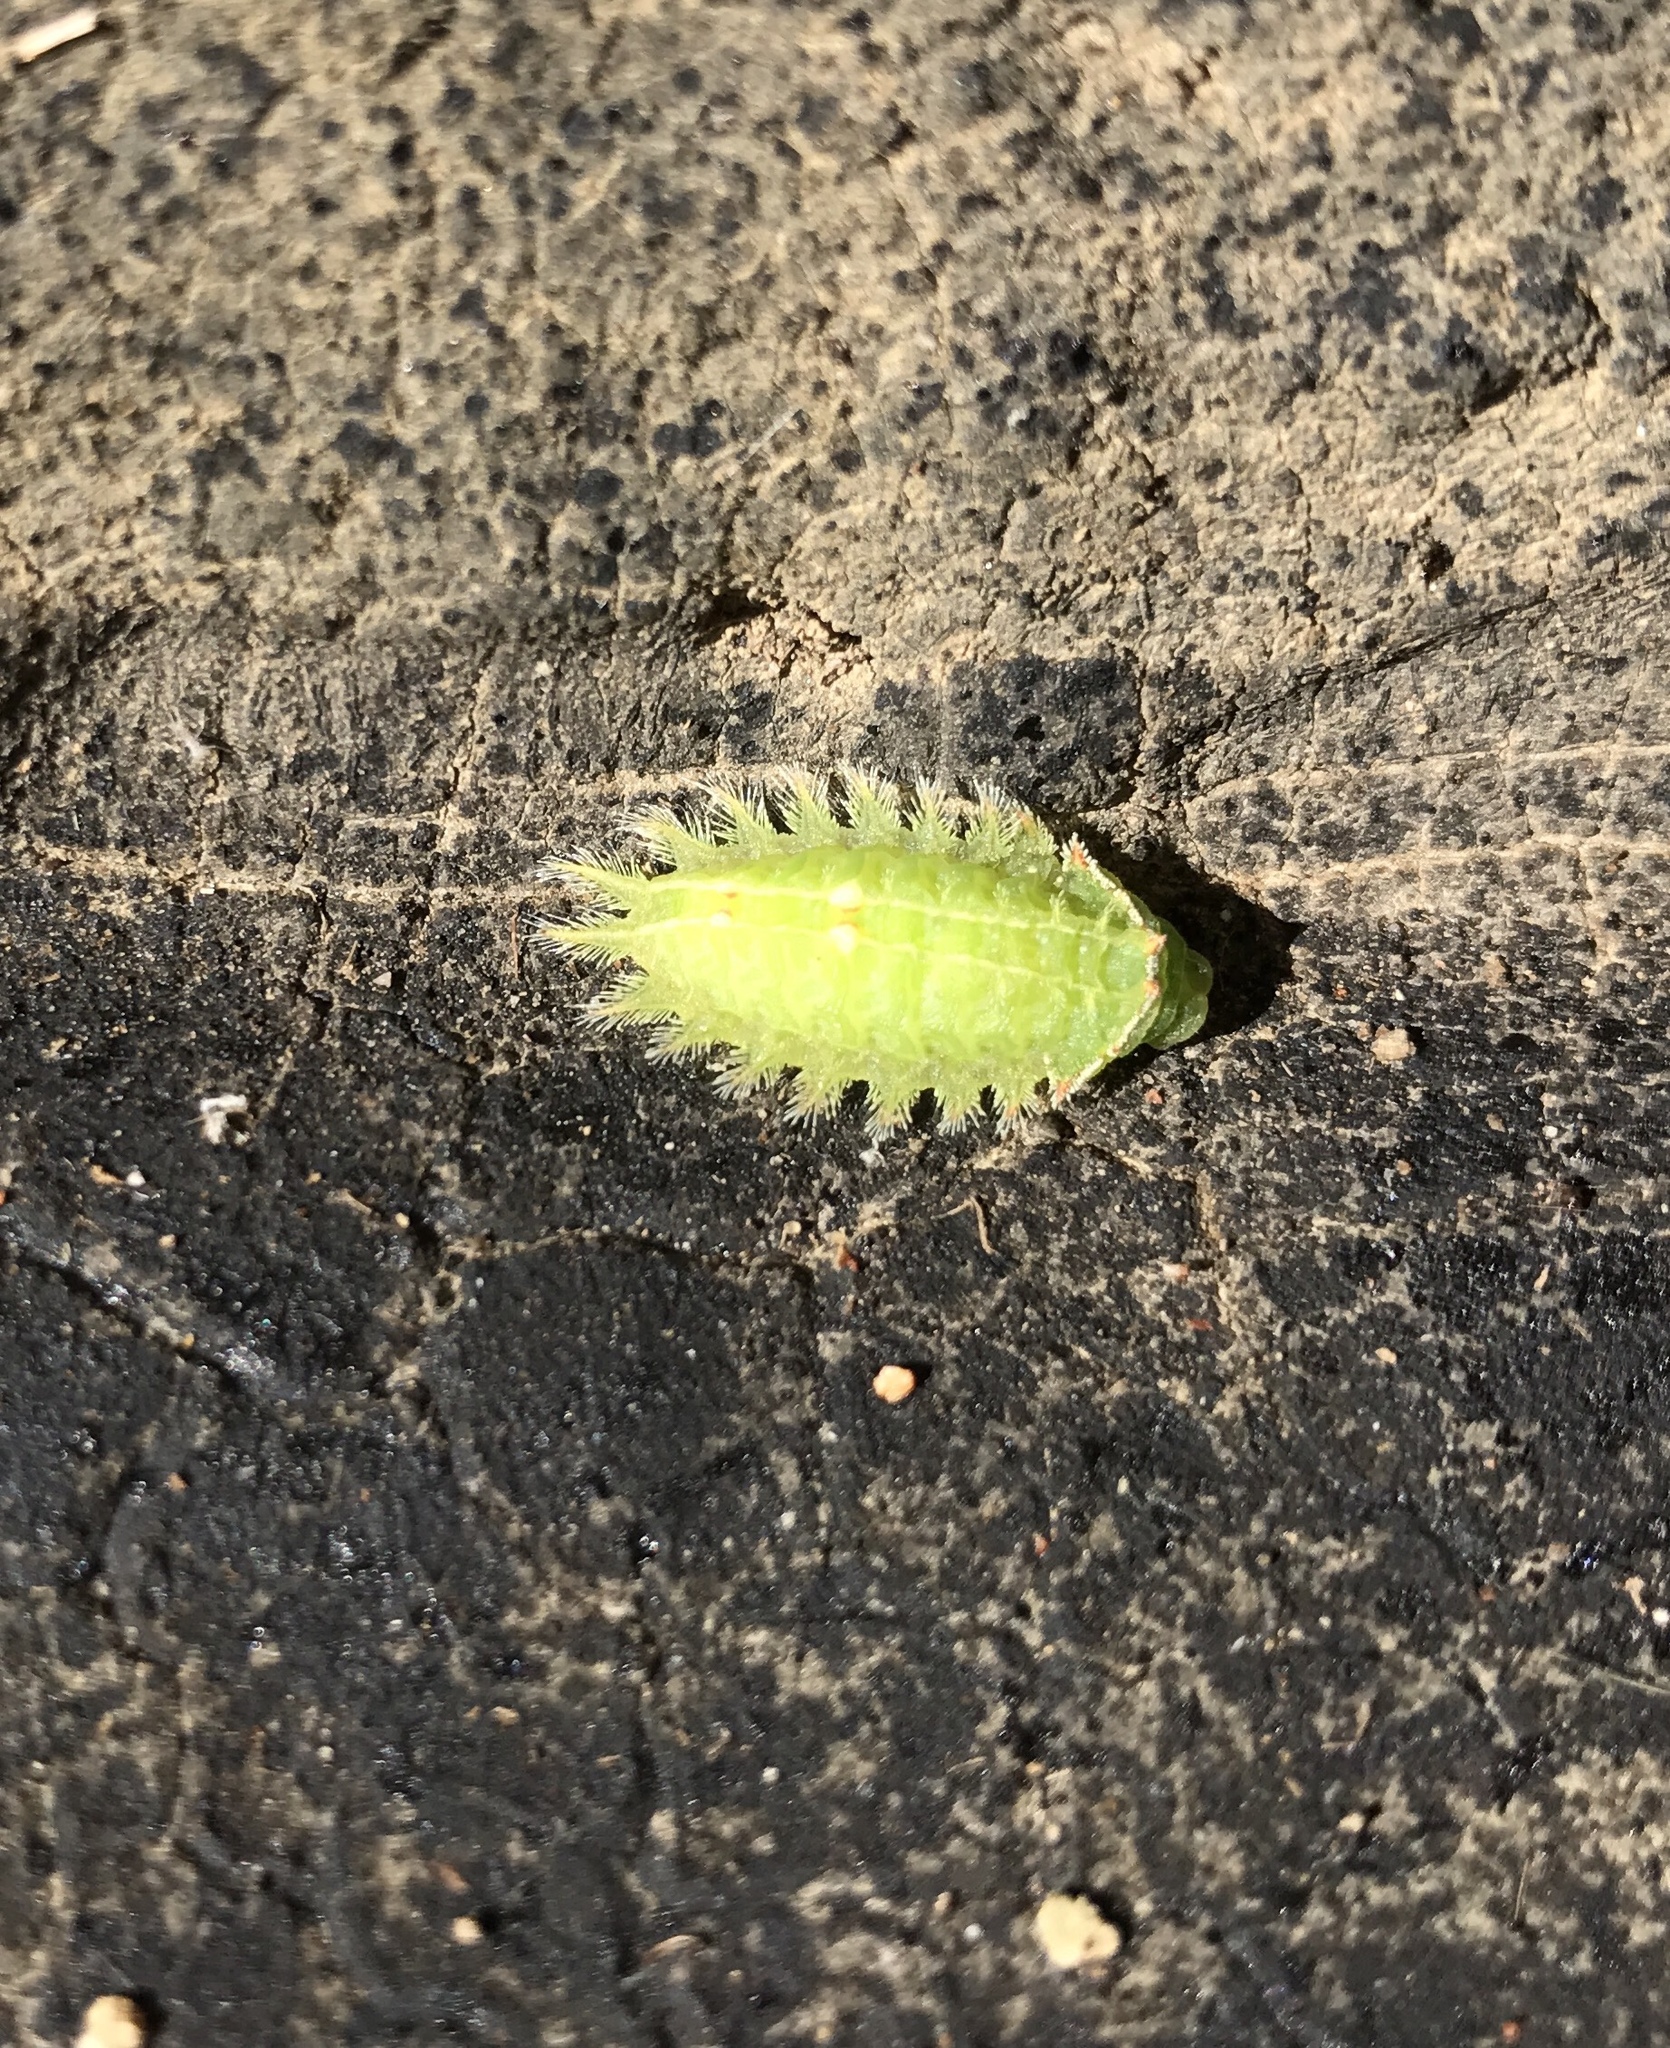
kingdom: Animalia
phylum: Arthropoda
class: Insecta
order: Lepidoptera
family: Limacodidae
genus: Isa
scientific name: Isa textula
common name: Crowned slug moth
